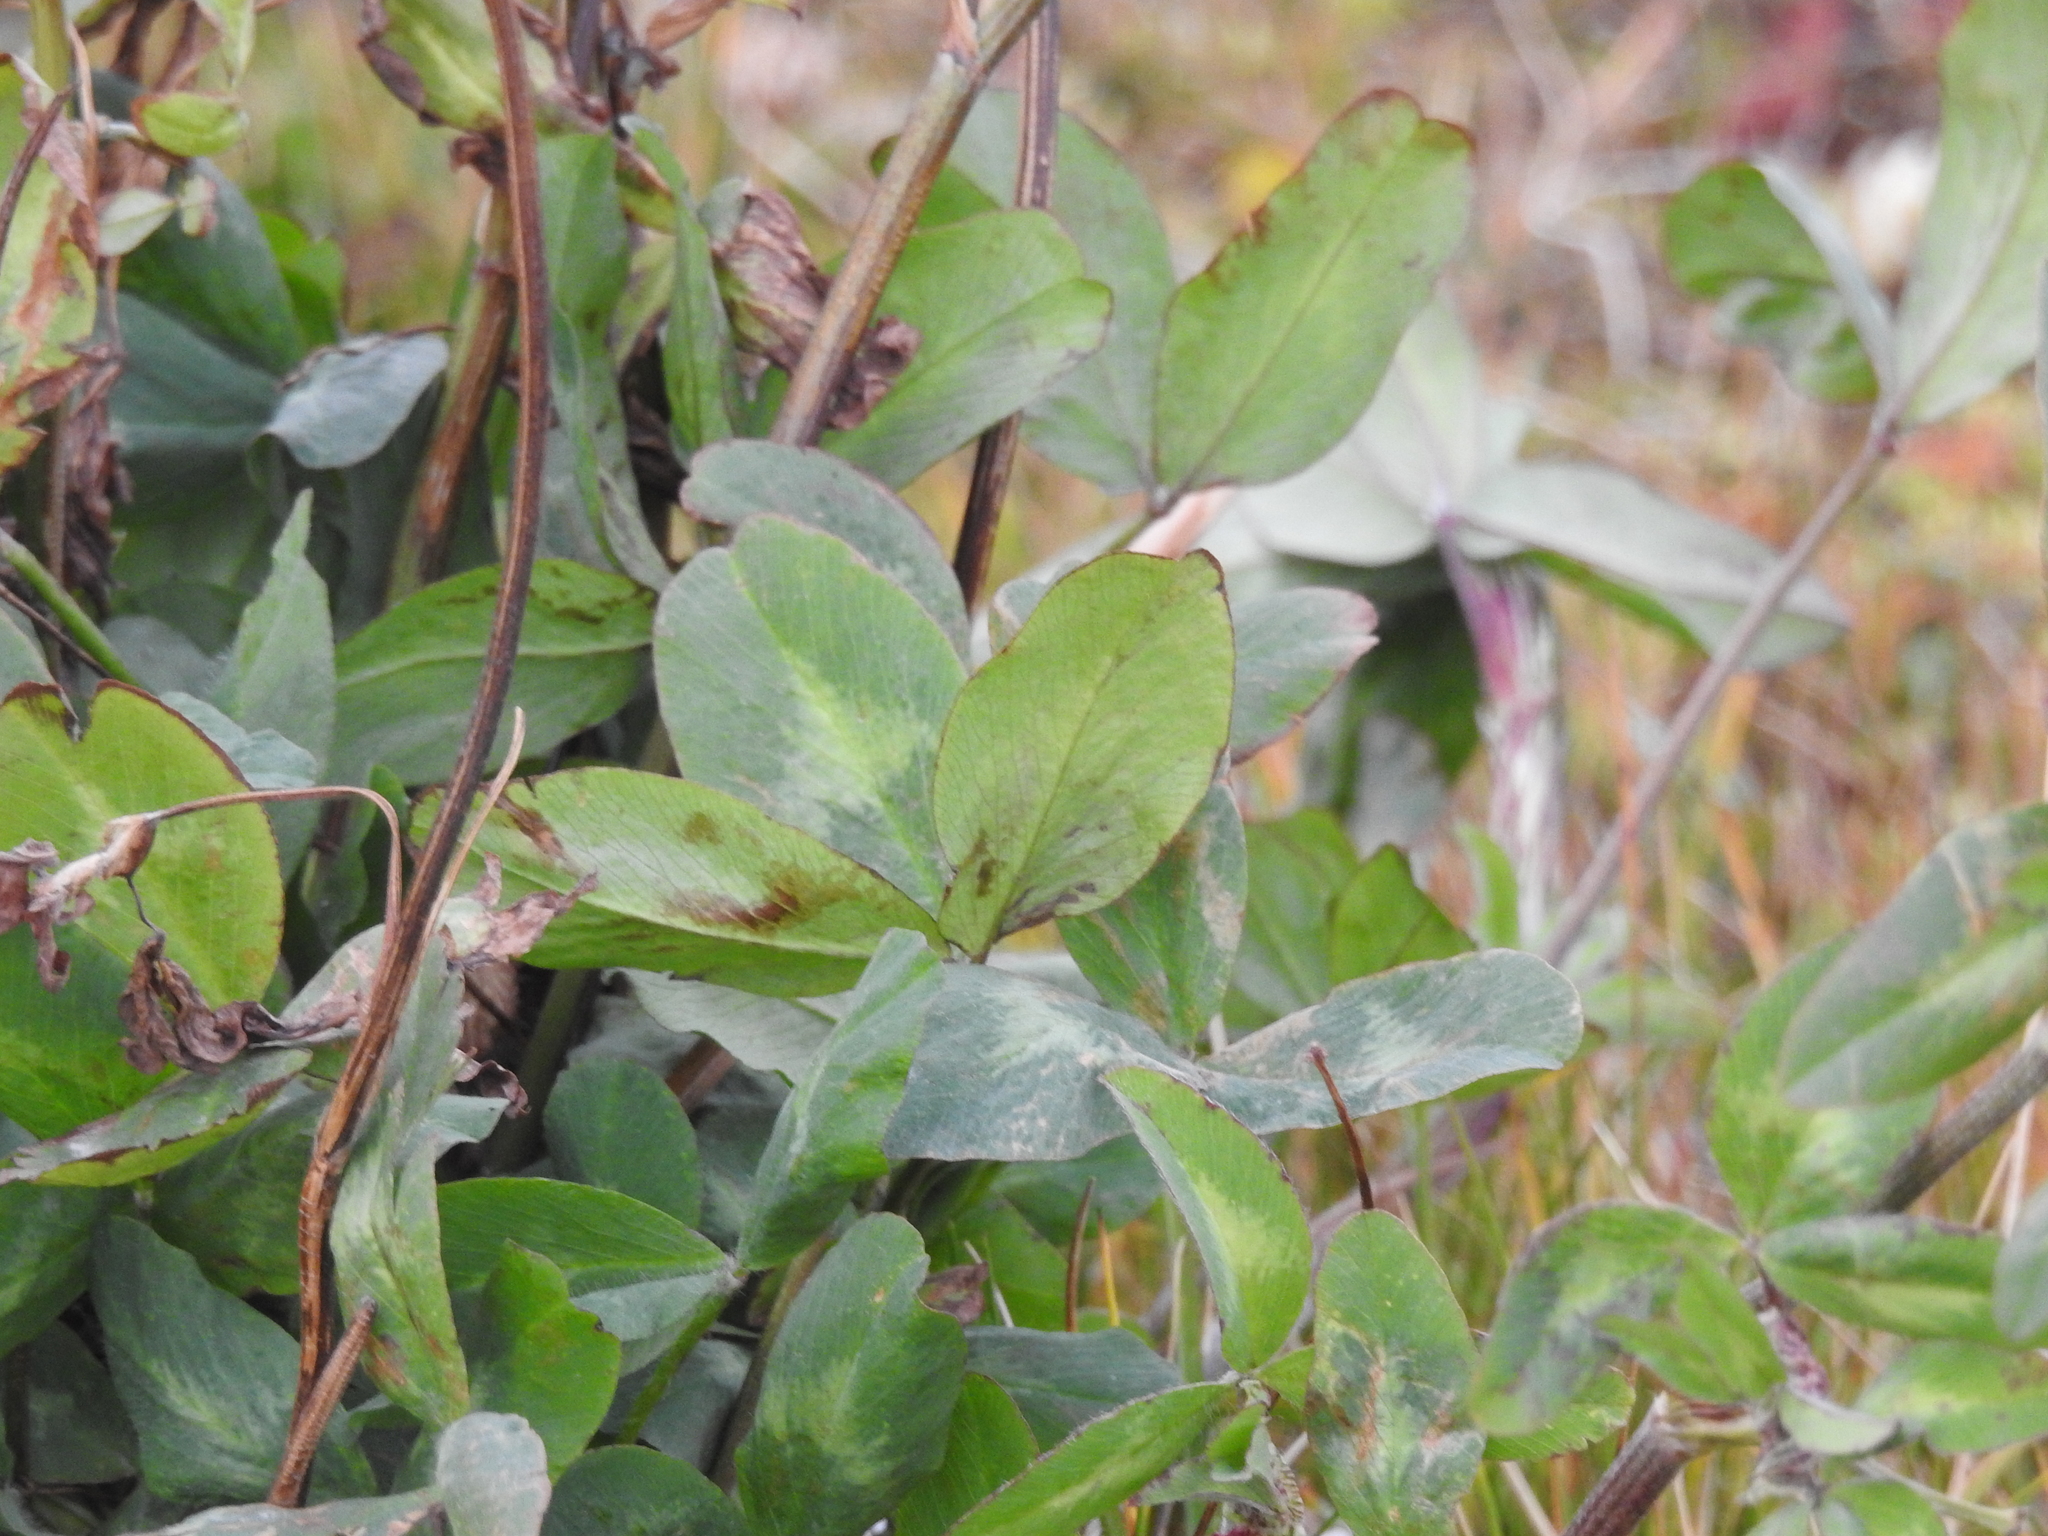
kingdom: Plantae
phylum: Tracheophyta
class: Magnoliopsida
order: Fabales
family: Fabaceae
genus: Trifolium
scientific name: Trifolium pratense
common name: Red clover
